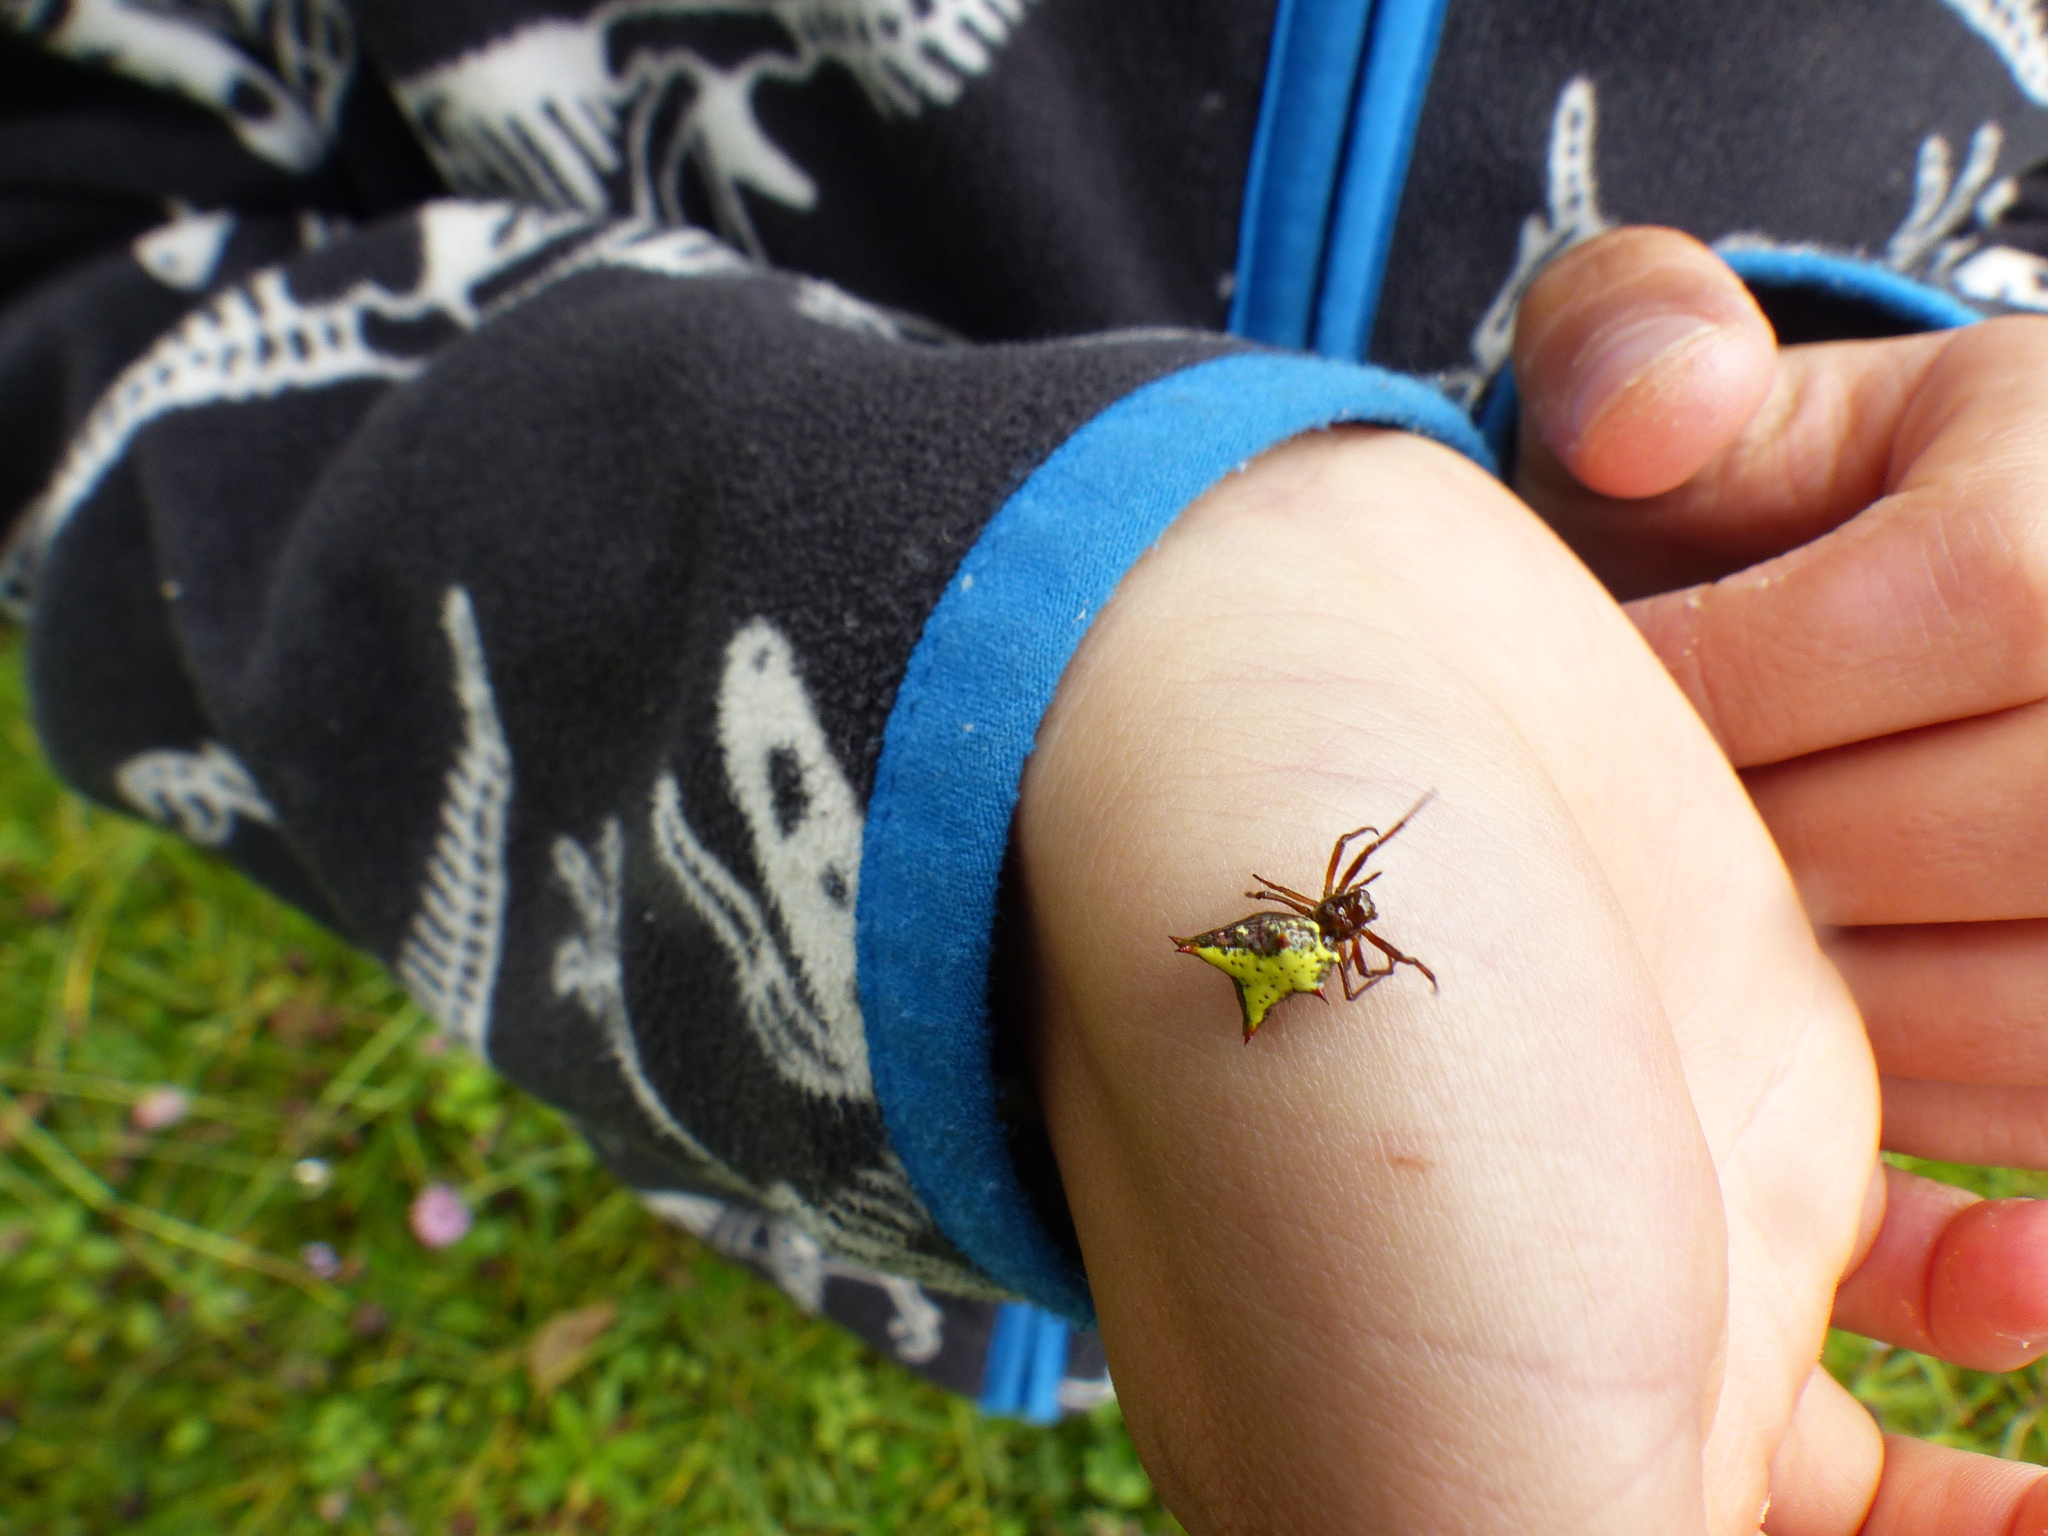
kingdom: Animalia
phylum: Arthropoda
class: Arachnida
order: Araneae
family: Araneidae
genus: Micrathena
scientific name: Micrathena crassa
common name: Orb weavers
